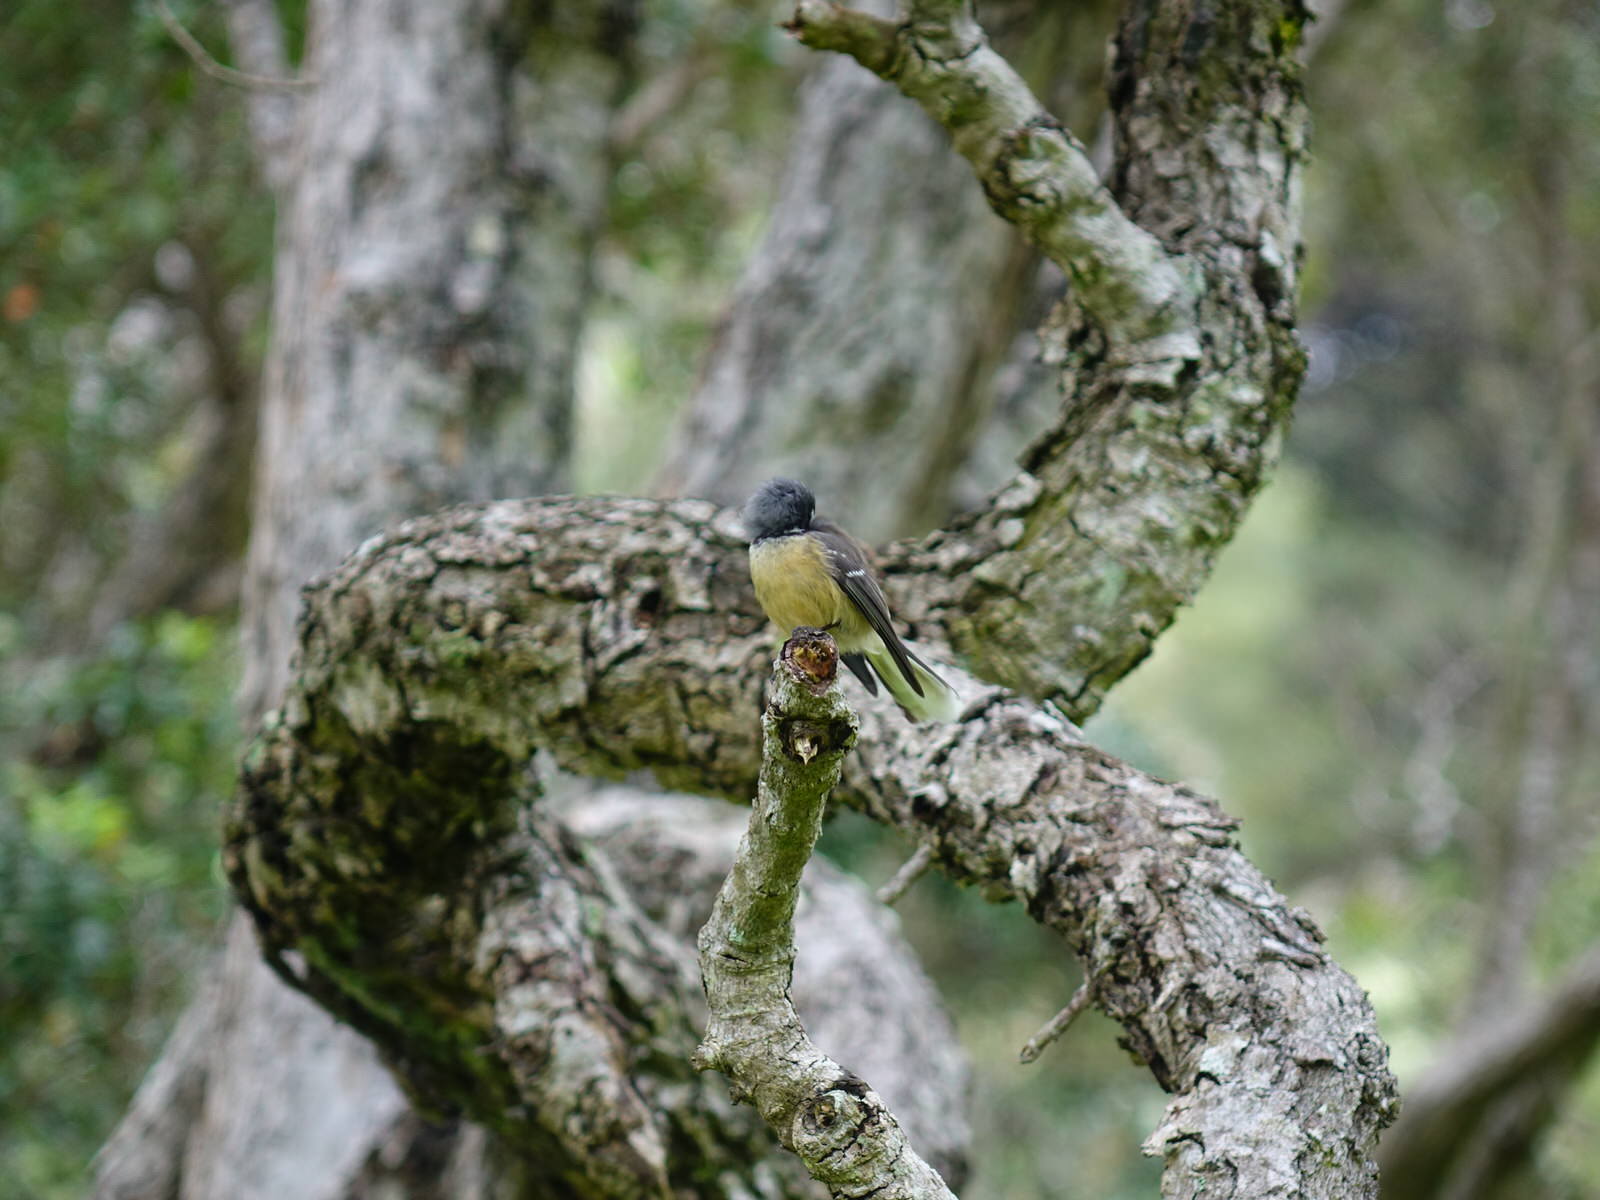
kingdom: Animalia
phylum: Chordata
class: Aves
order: Passeriformes
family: Rhipiduridae
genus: Rhipidura
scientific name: Rhipidura fuliginosa
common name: New zealand fantail
